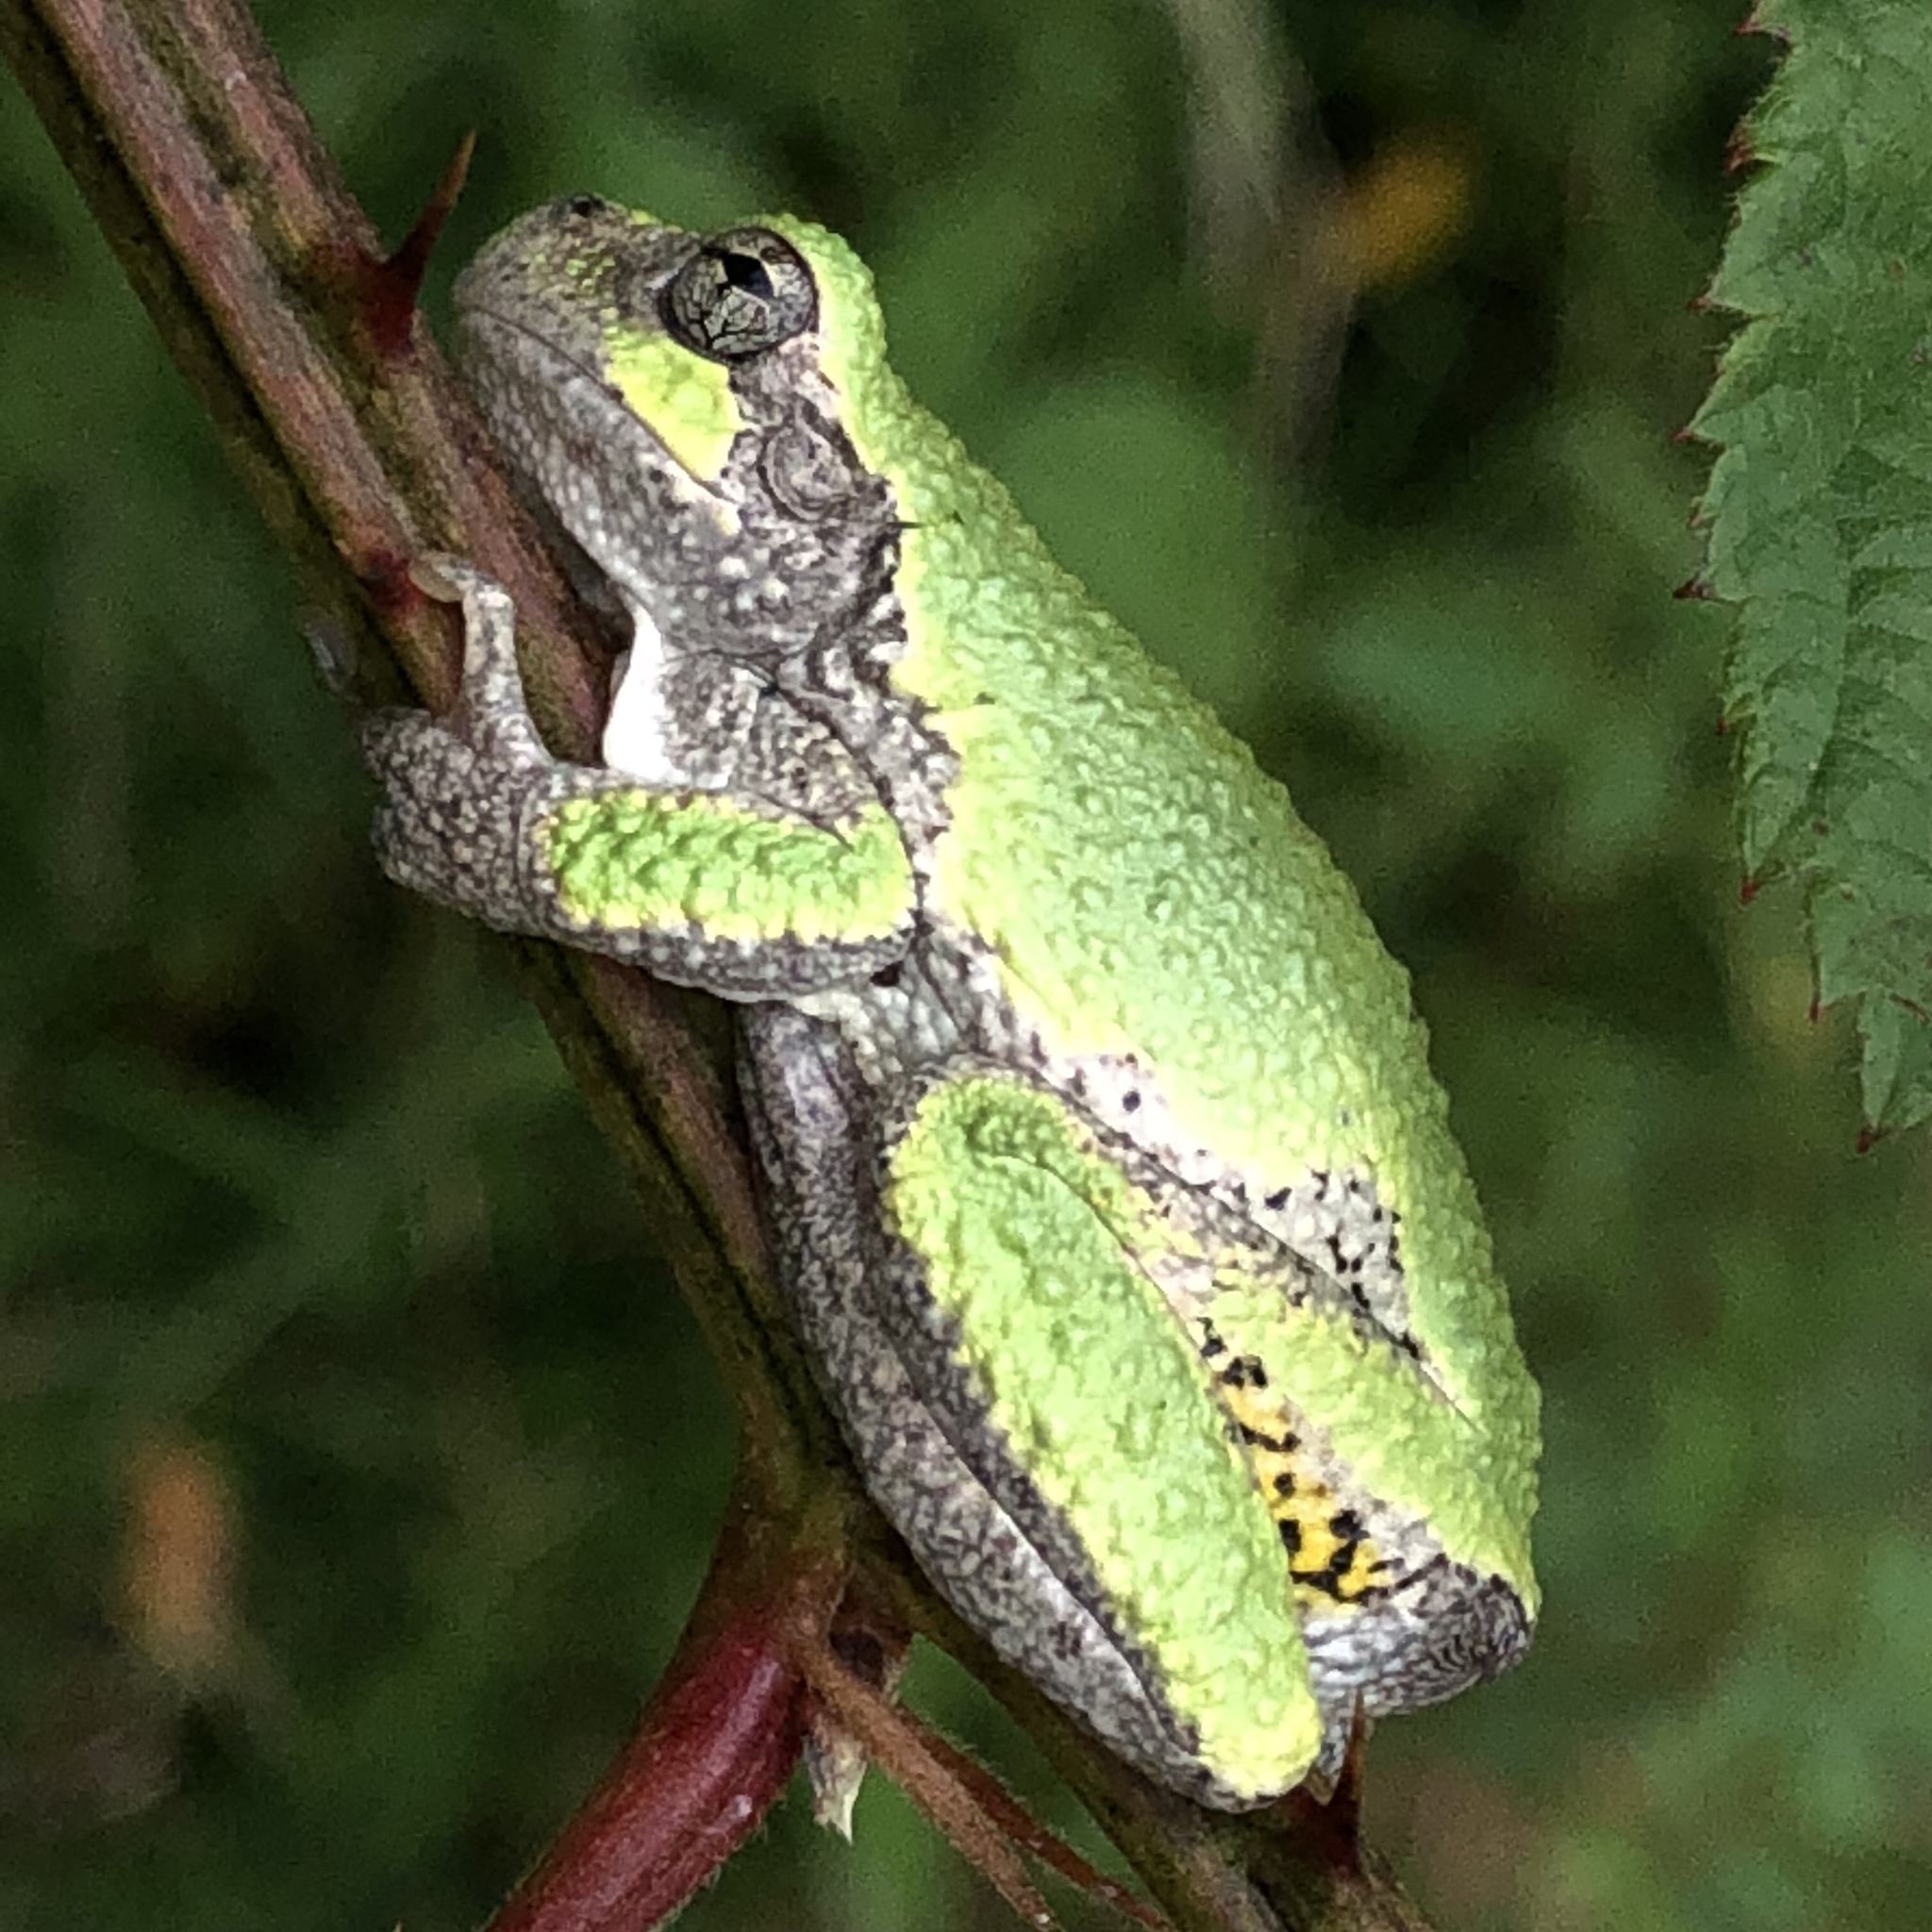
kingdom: Animalia
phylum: Chordata
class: Amphibia
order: Anura
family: Hylidae
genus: Dryophytes
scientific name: Dryophytes versicolor
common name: Gray treefrog
